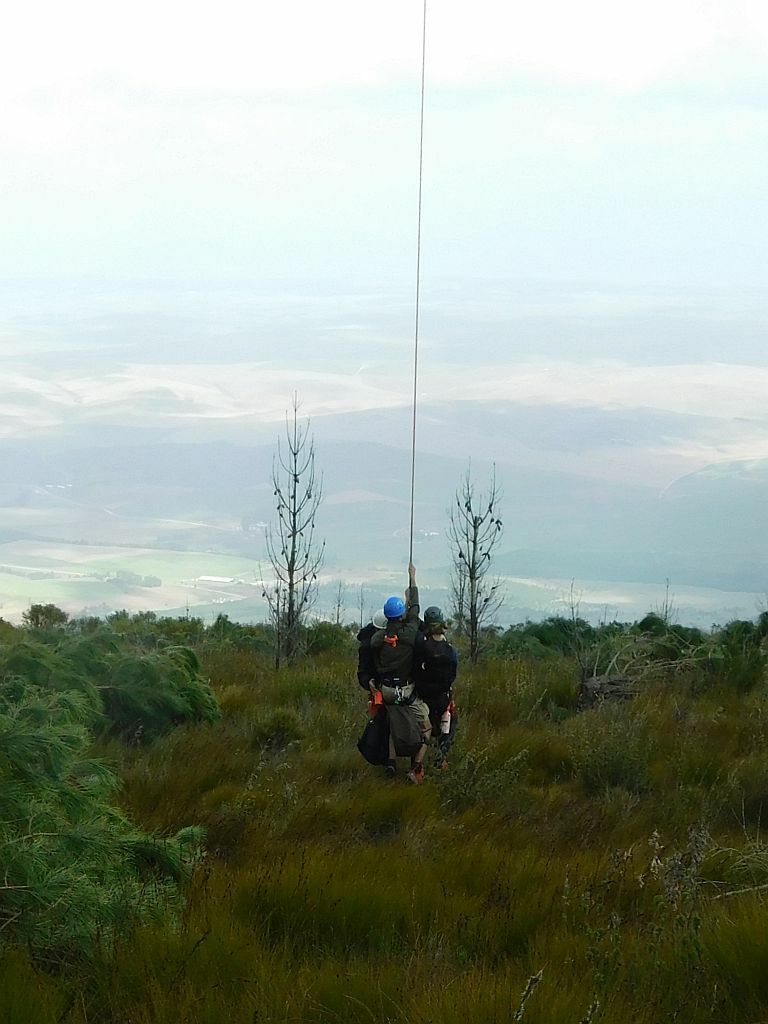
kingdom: Plantae
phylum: Tracheophyta
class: Pinopsida
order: Pinales
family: Pinaceae
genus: Pinus
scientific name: Pinus pinaster
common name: Maritime pine
